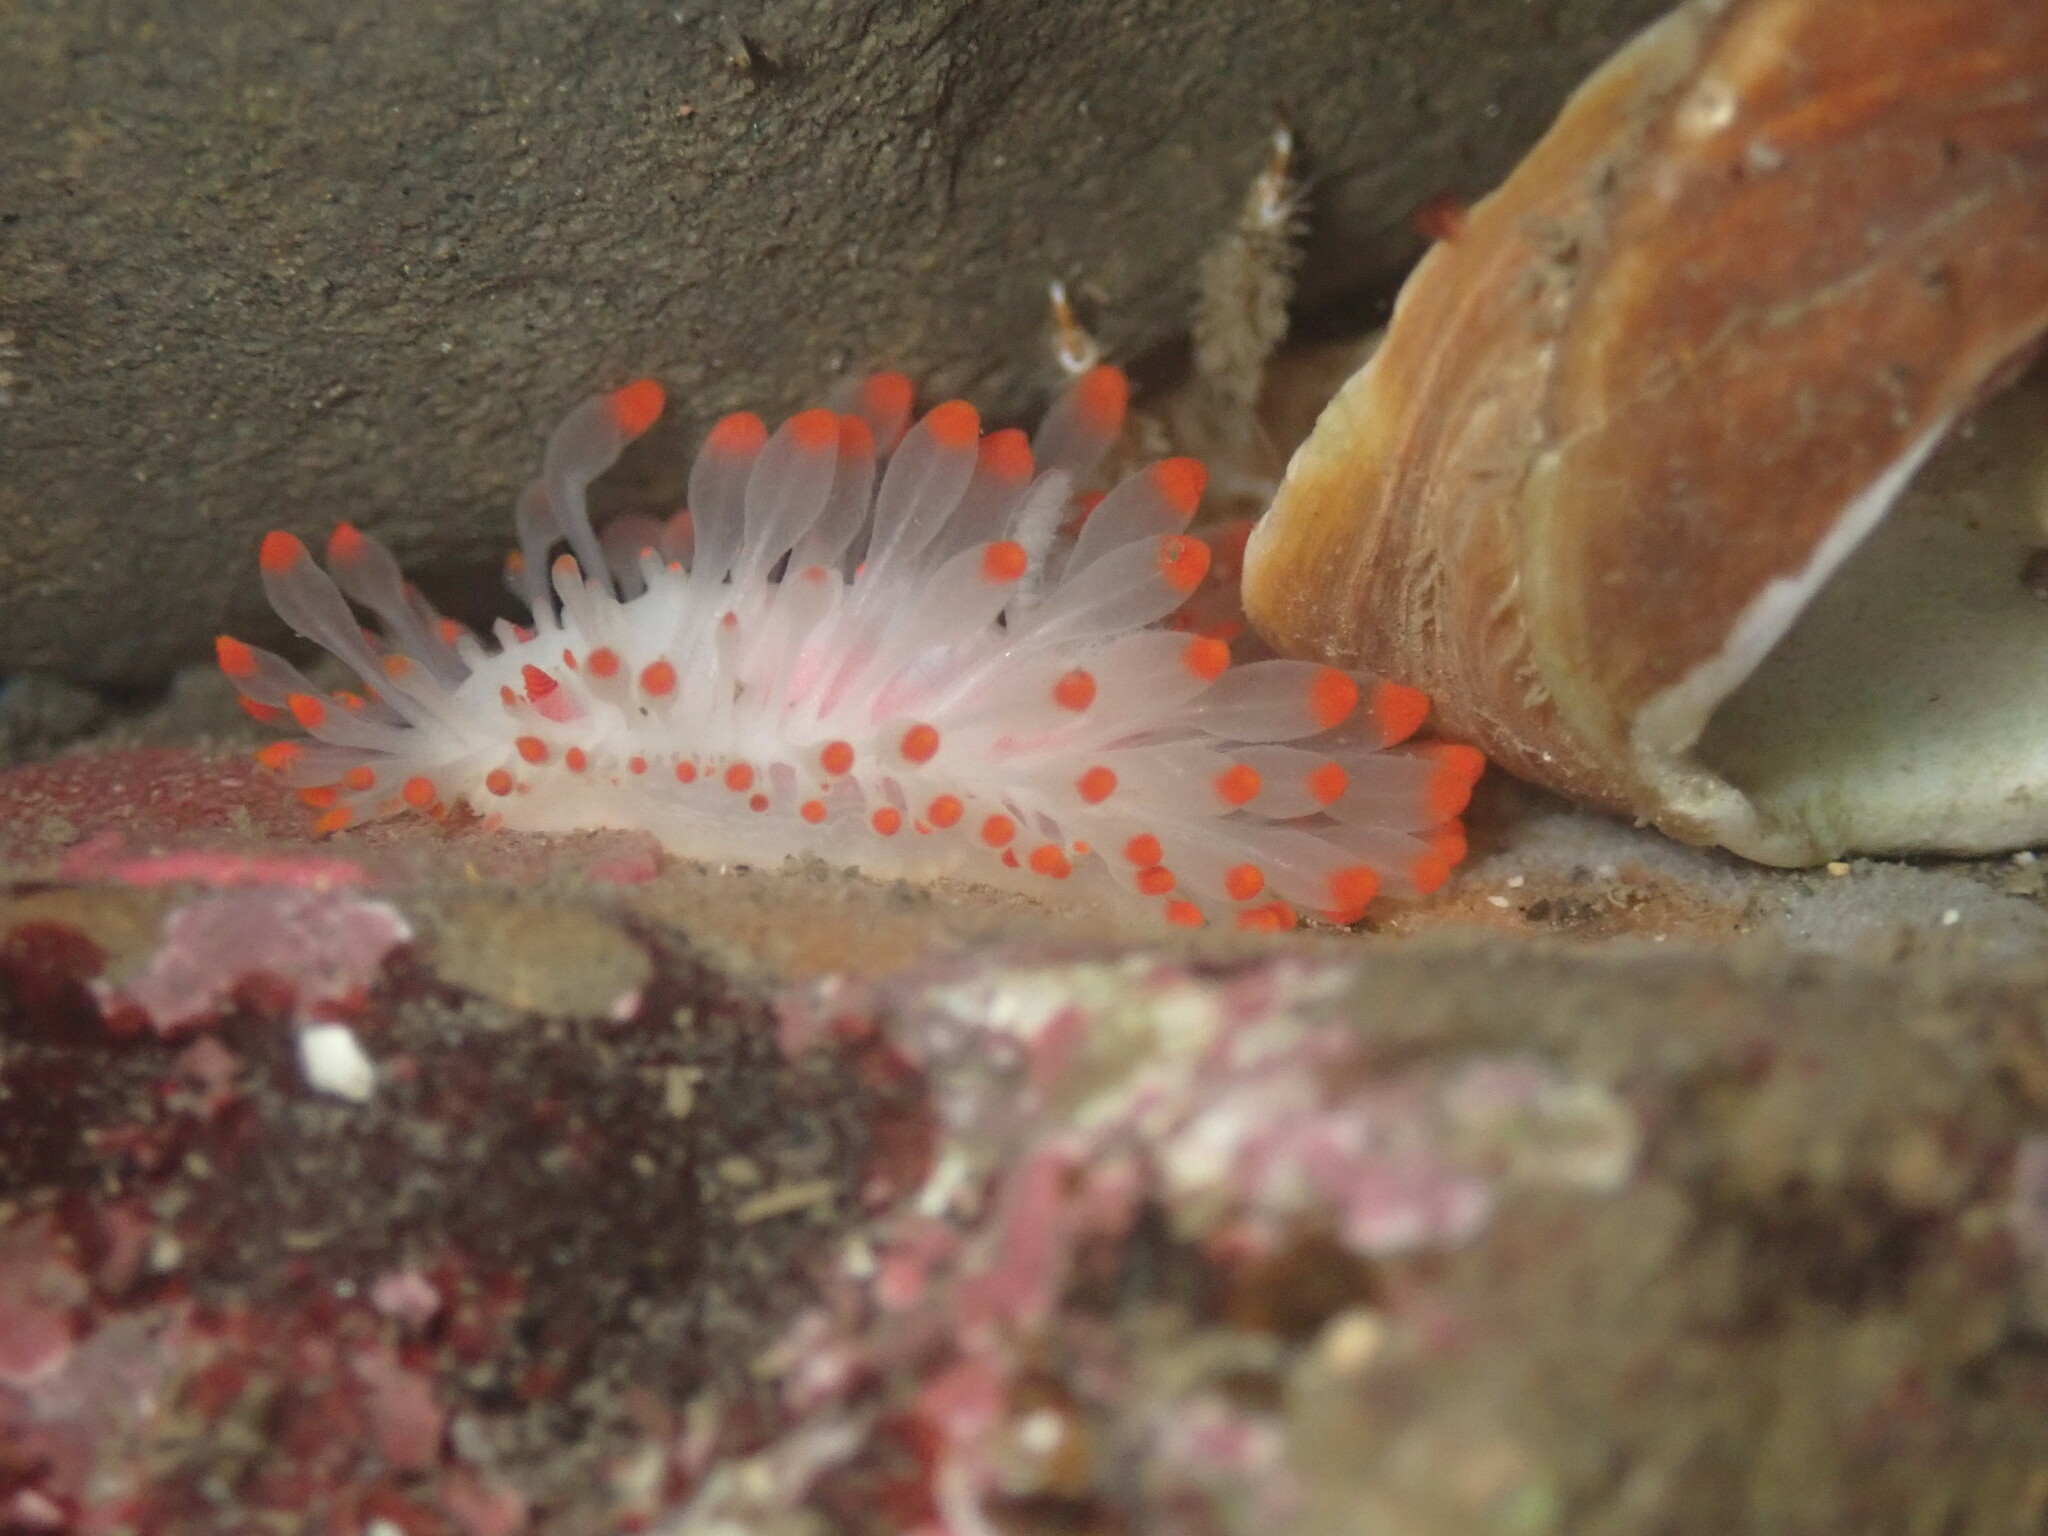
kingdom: Animalia
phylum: Mollusca
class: Gastropoda
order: Nudibranchia
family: Polyceridae
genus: Limacia
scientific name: Limacia cockerelli
